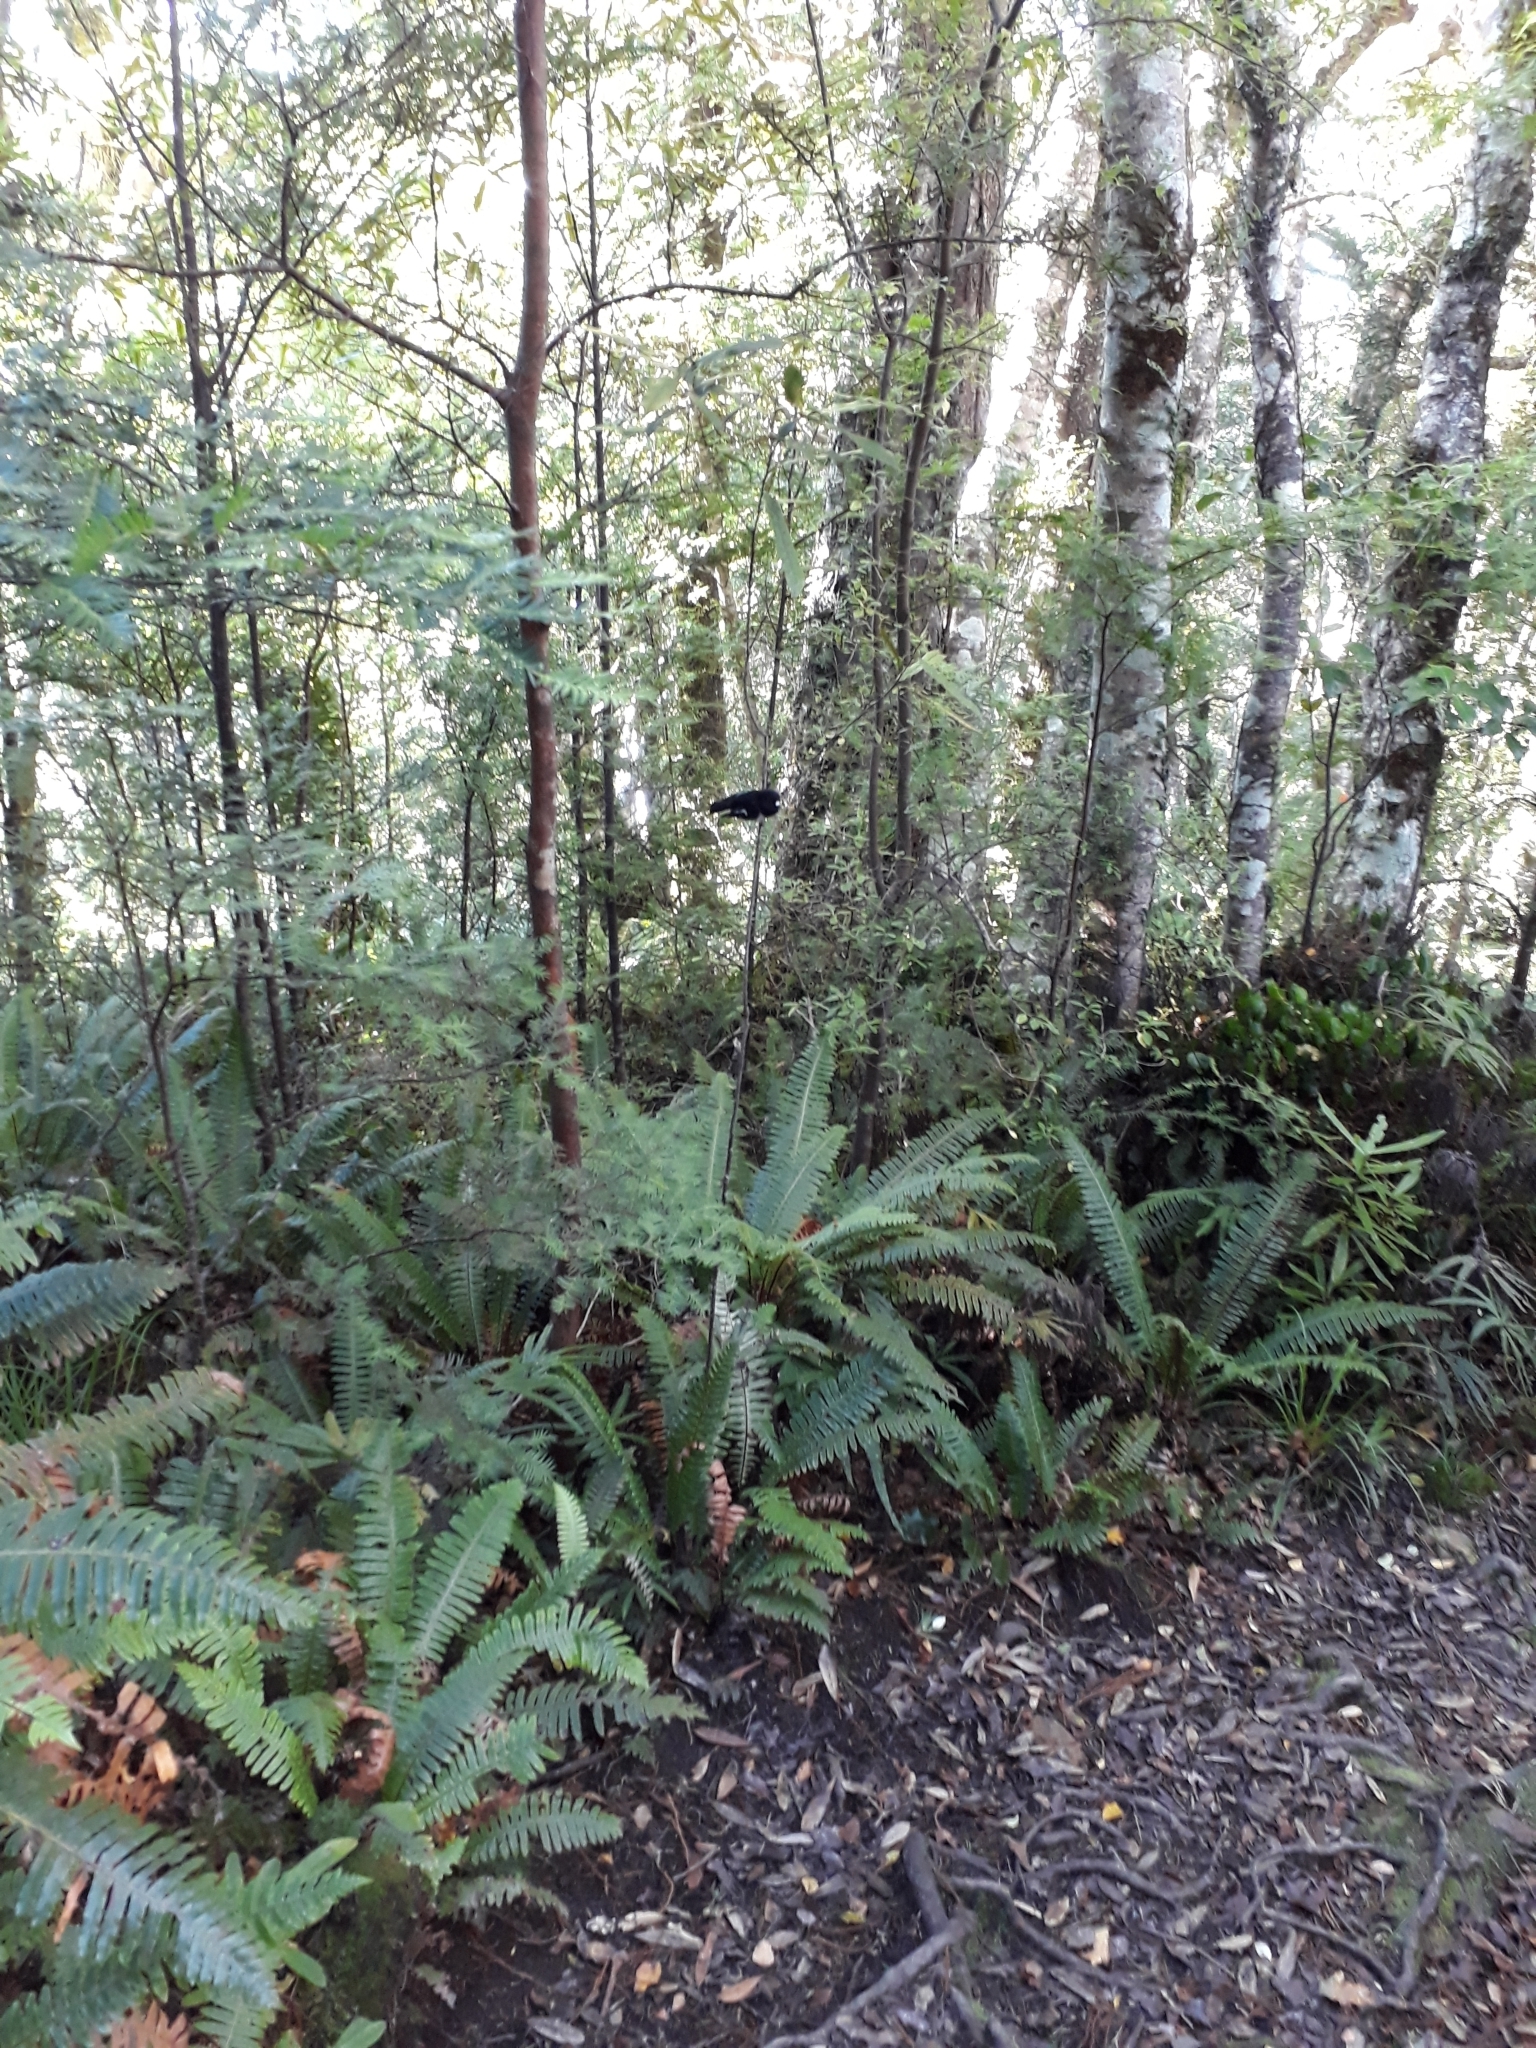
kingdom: Animalia
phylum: Chordata
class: Aves
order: Passeriformes
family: Petroicidae
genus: Petroica
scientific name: Petroica macrocephala
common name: Tomtit
